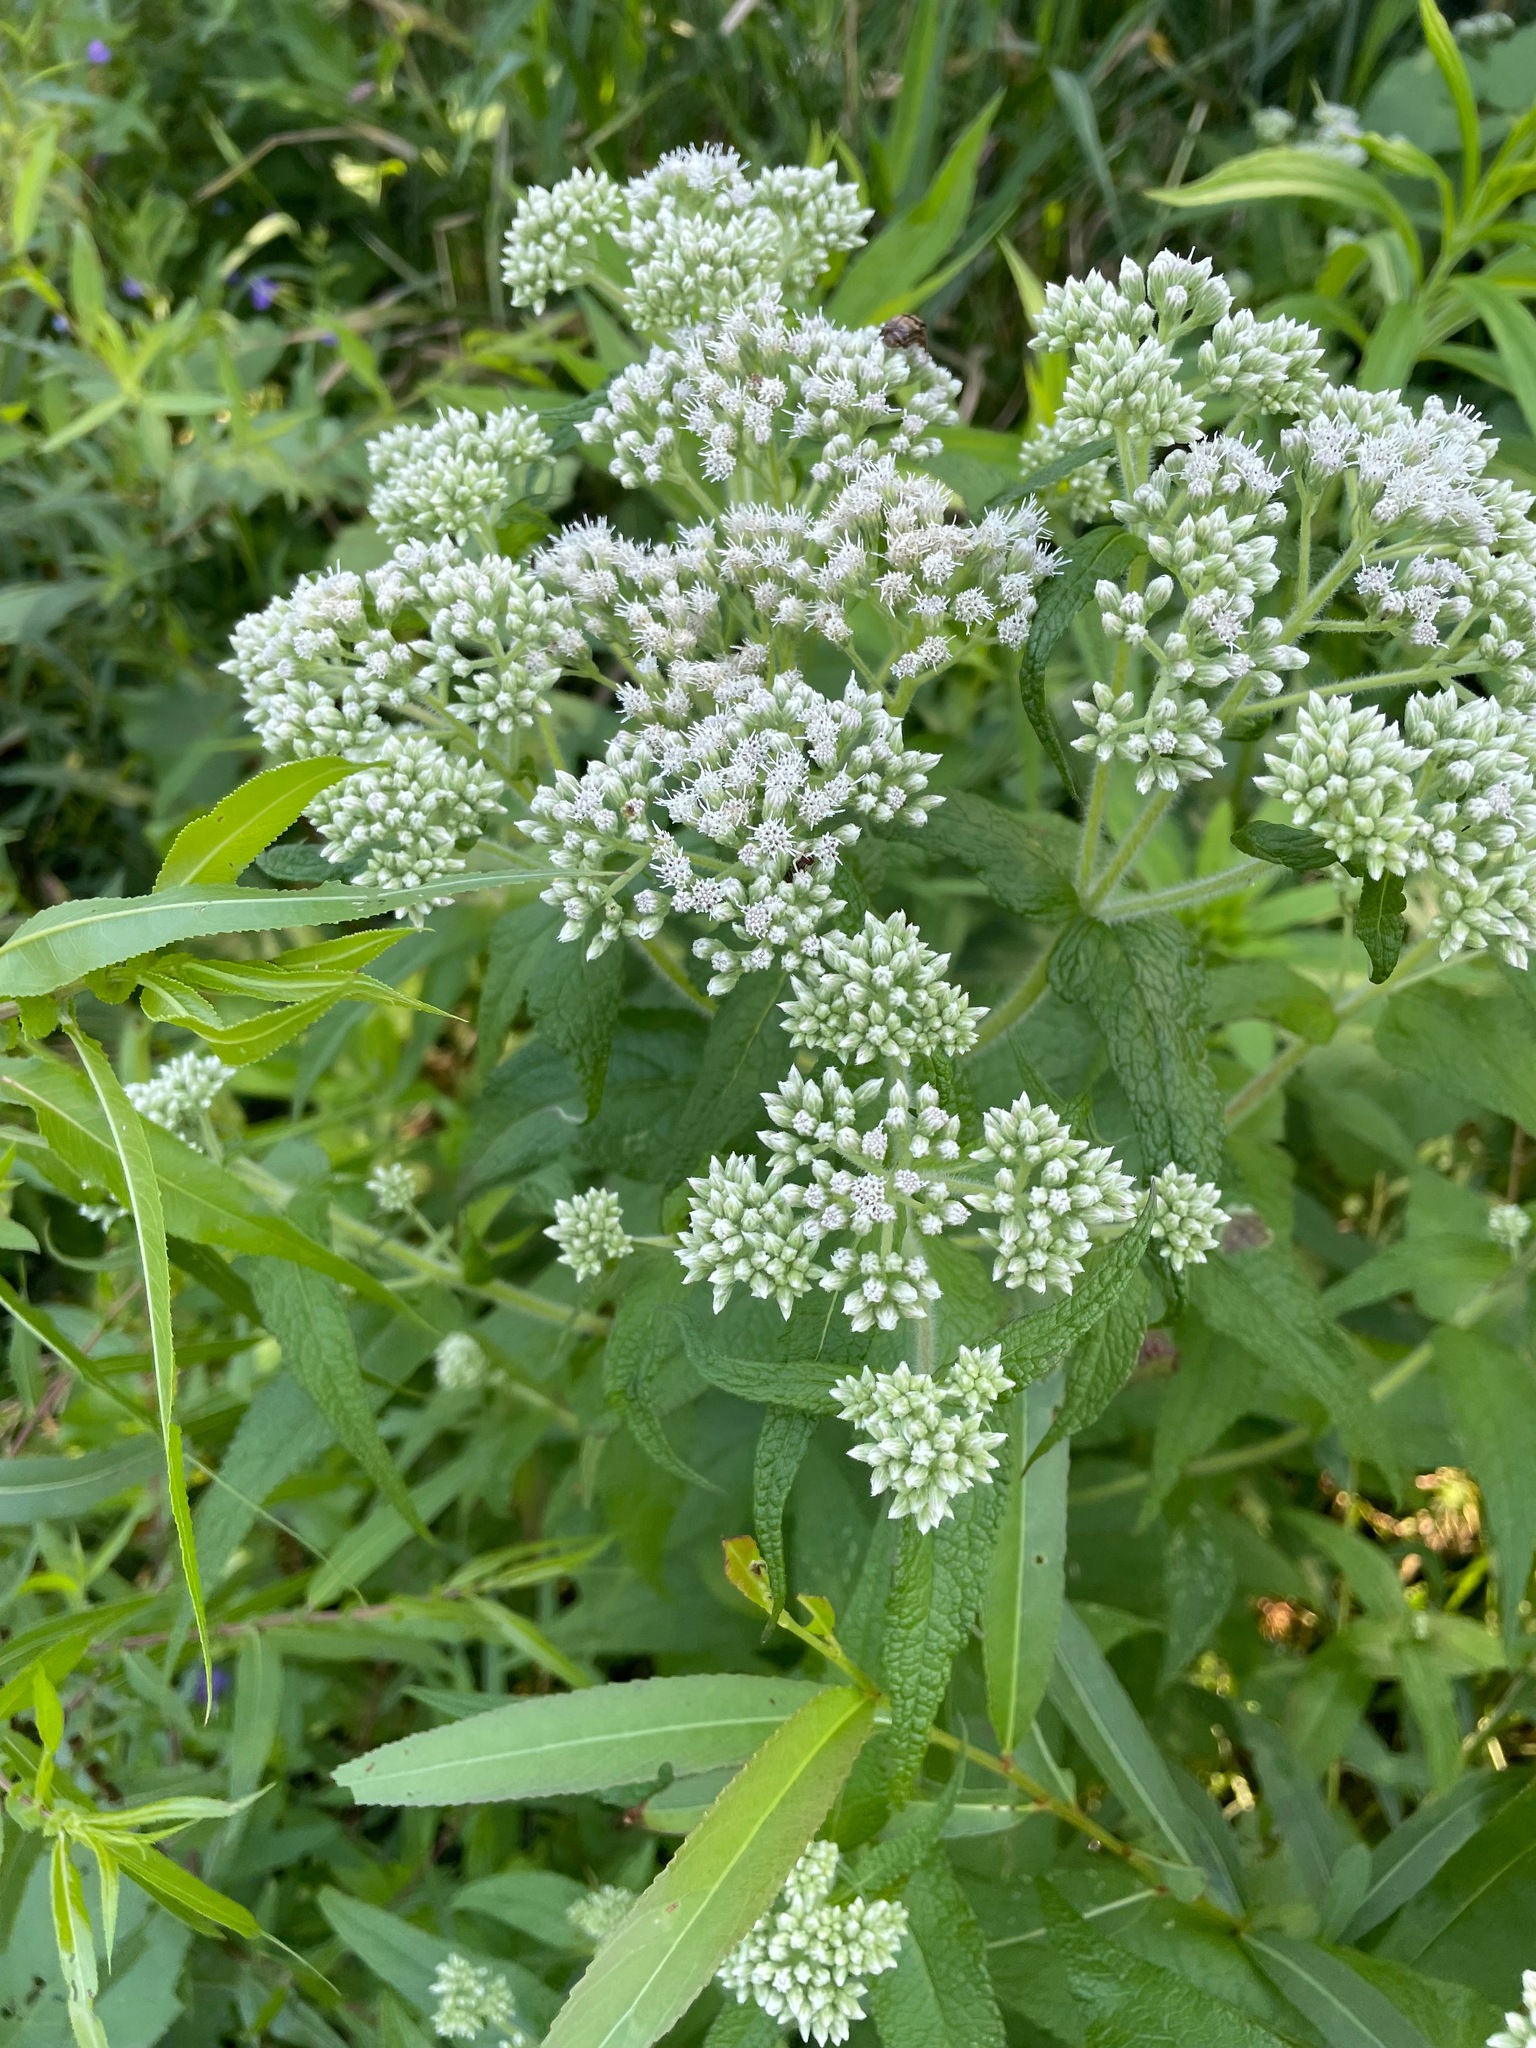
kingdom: Plantae
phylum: Tracheophyta
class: Magnoliopsida
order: Asterales
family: Asteraceae
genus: Eupatorium
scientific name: Eupatorium perfoliatum
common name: Boneset
